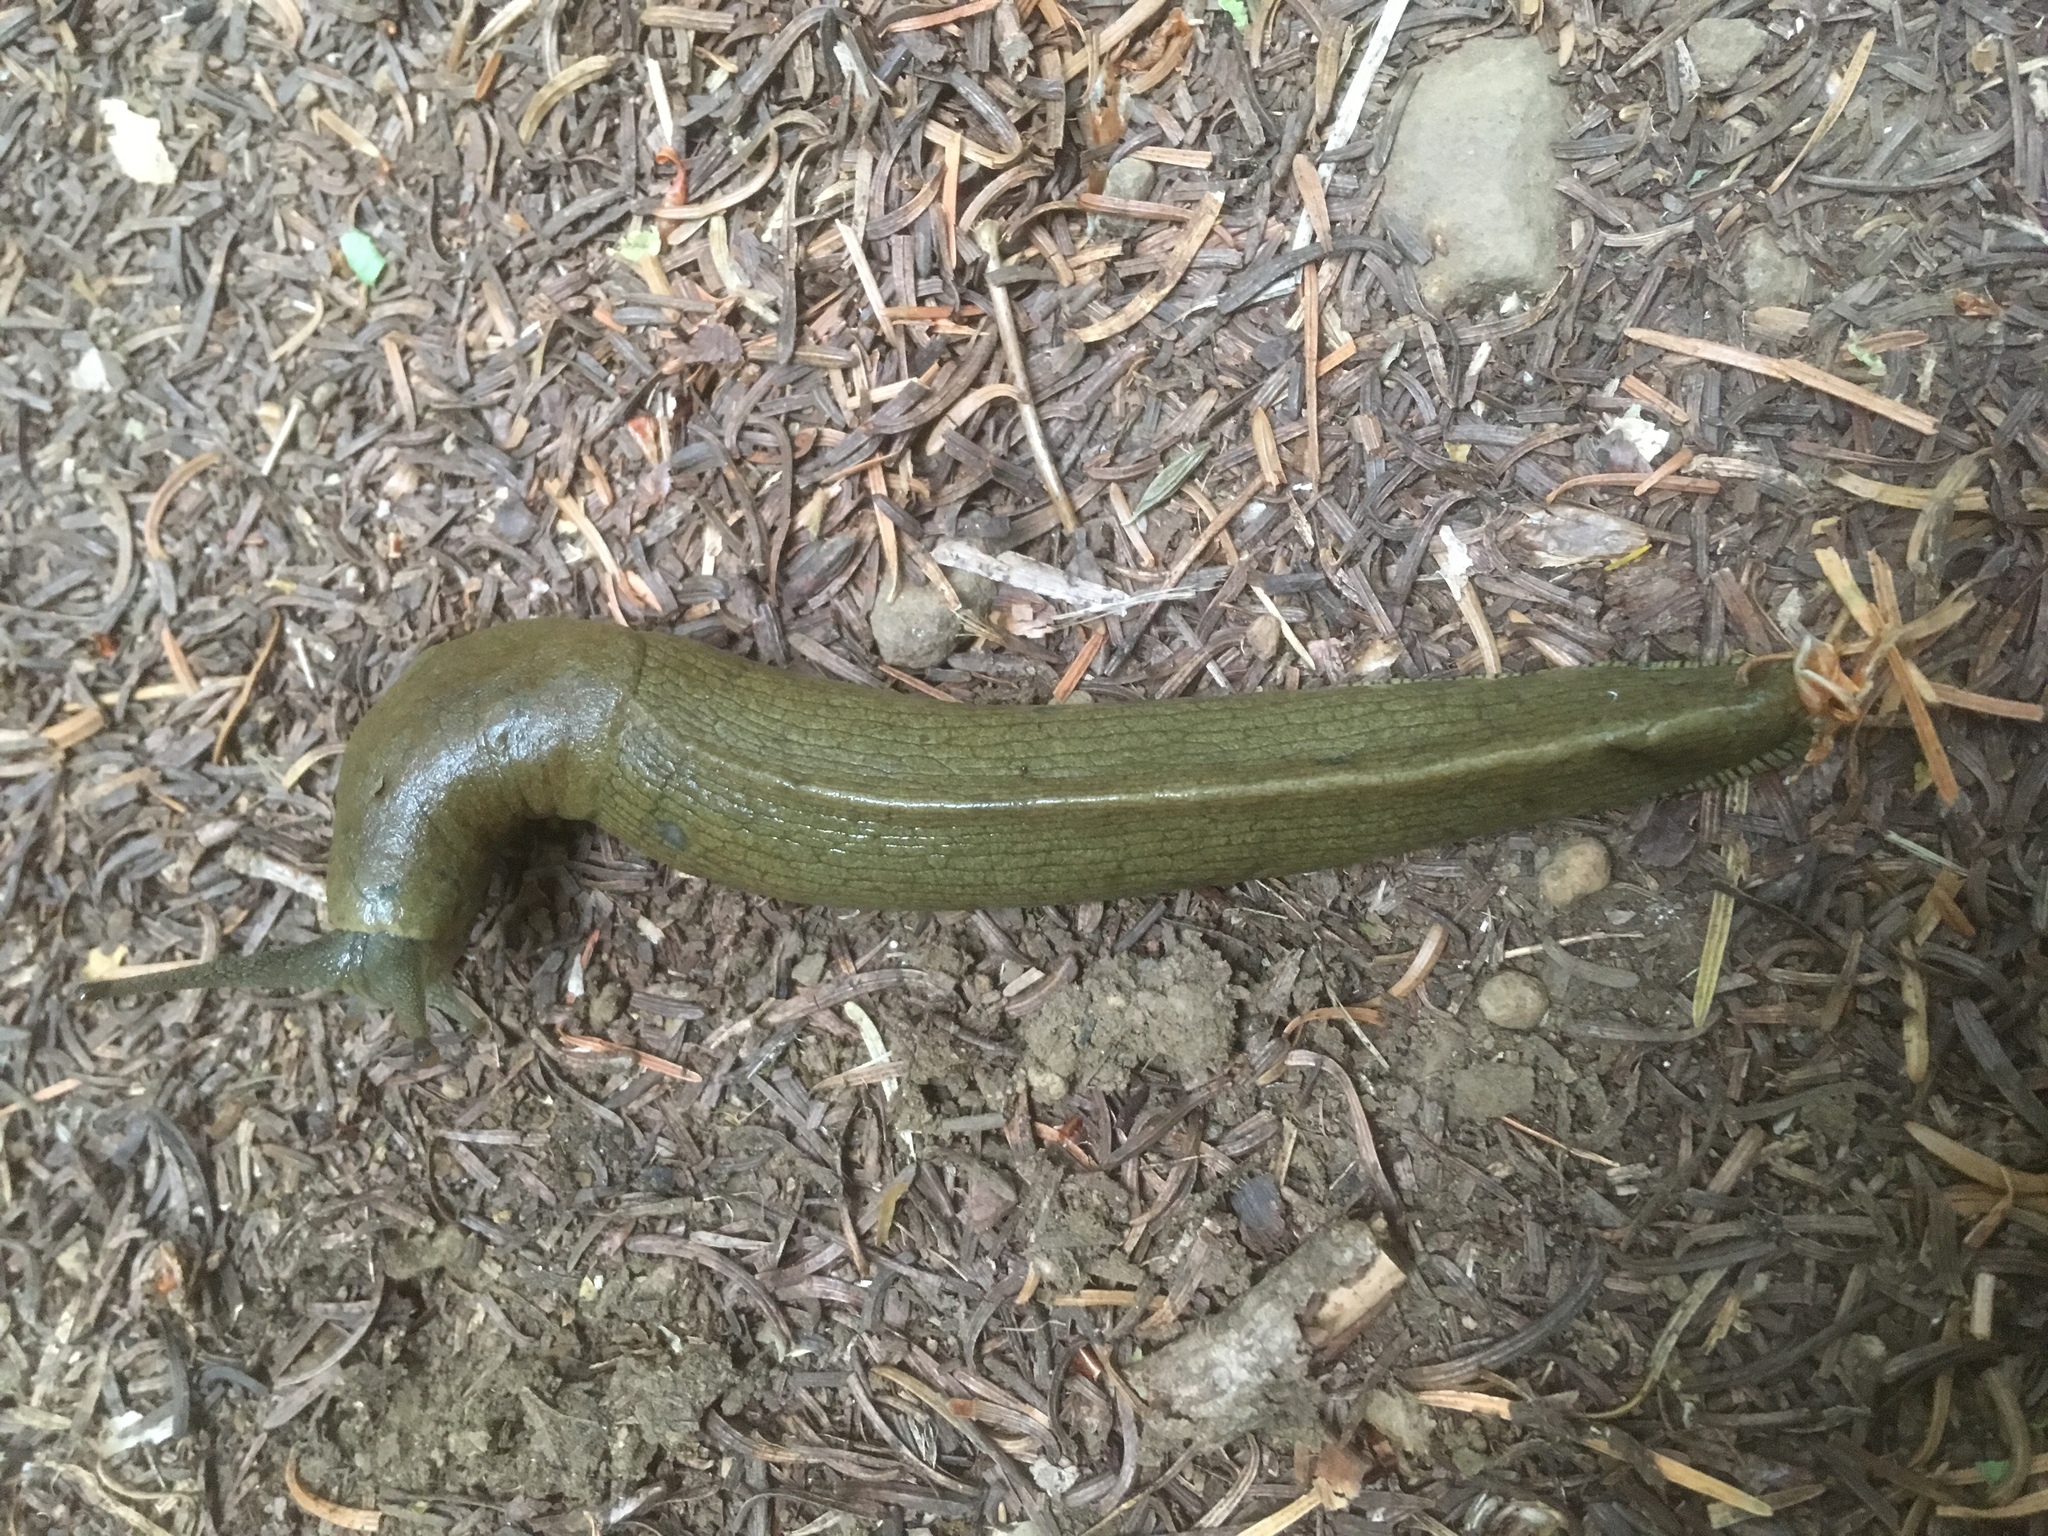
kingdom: Animalia
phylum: Mollusca
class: Gastropoda
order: Stylommatophora
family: Ariolimacidae
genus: Ariolimax
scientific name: Ariolimax columbianus
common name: Pacific banana slug
